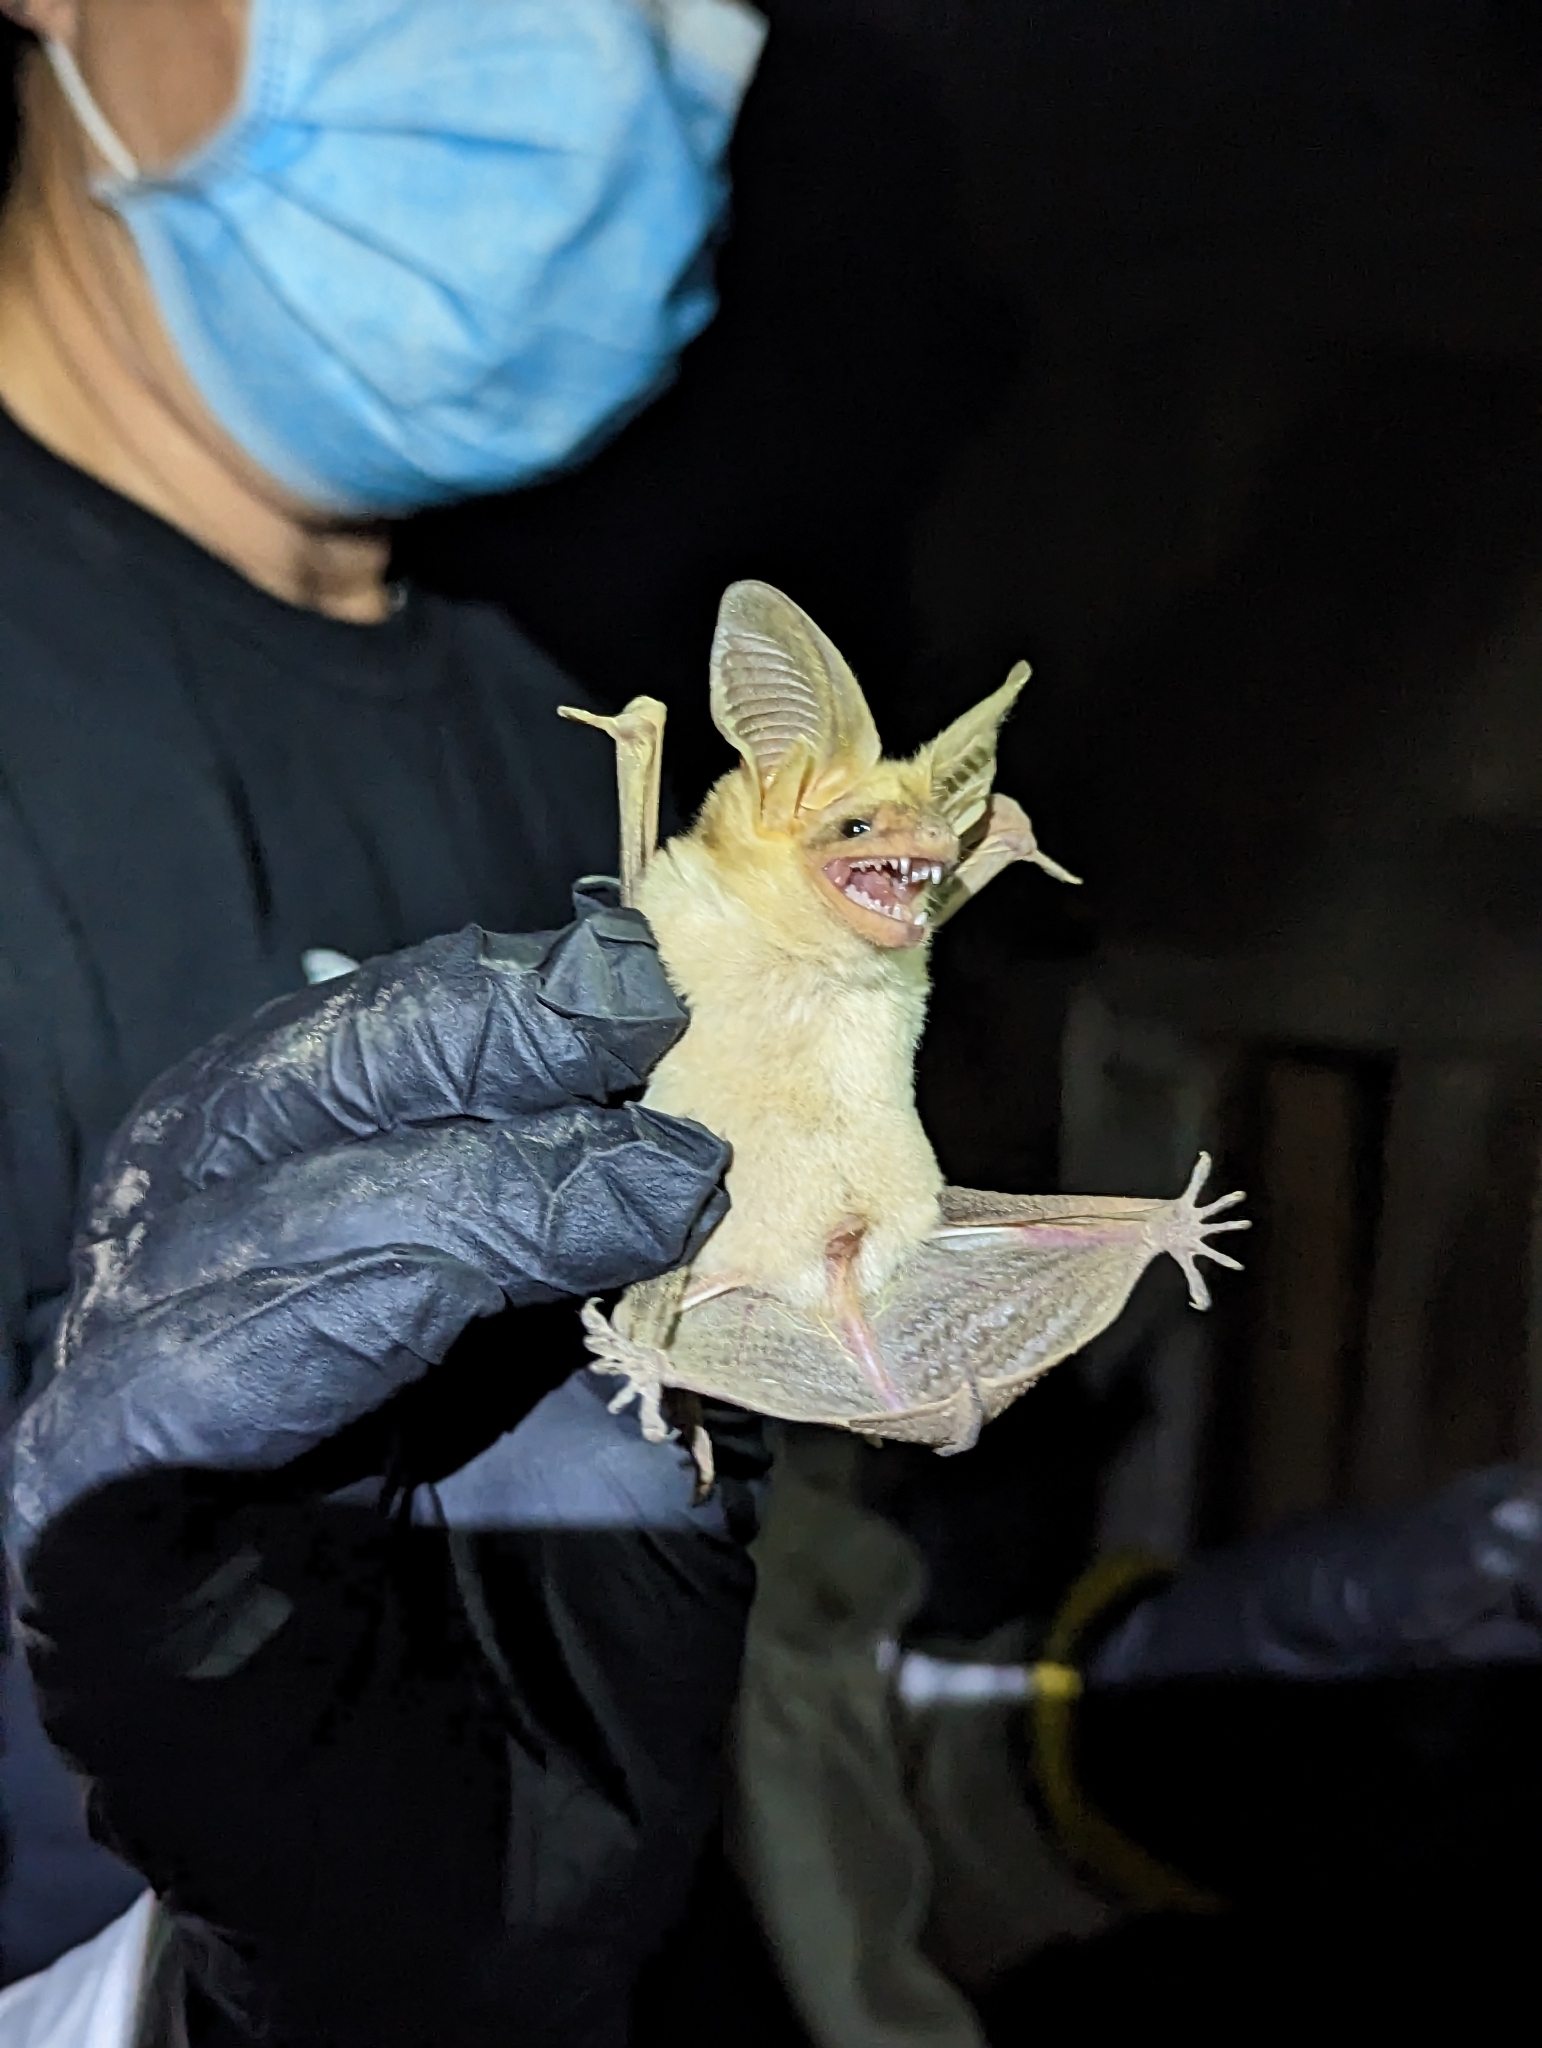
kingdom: Animalia
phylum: Chordata
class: Mammalia
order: Chiroptera
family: Vespertilionidae
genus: Antrozous
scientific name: Antrozous pallidus
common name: Pallid bat
